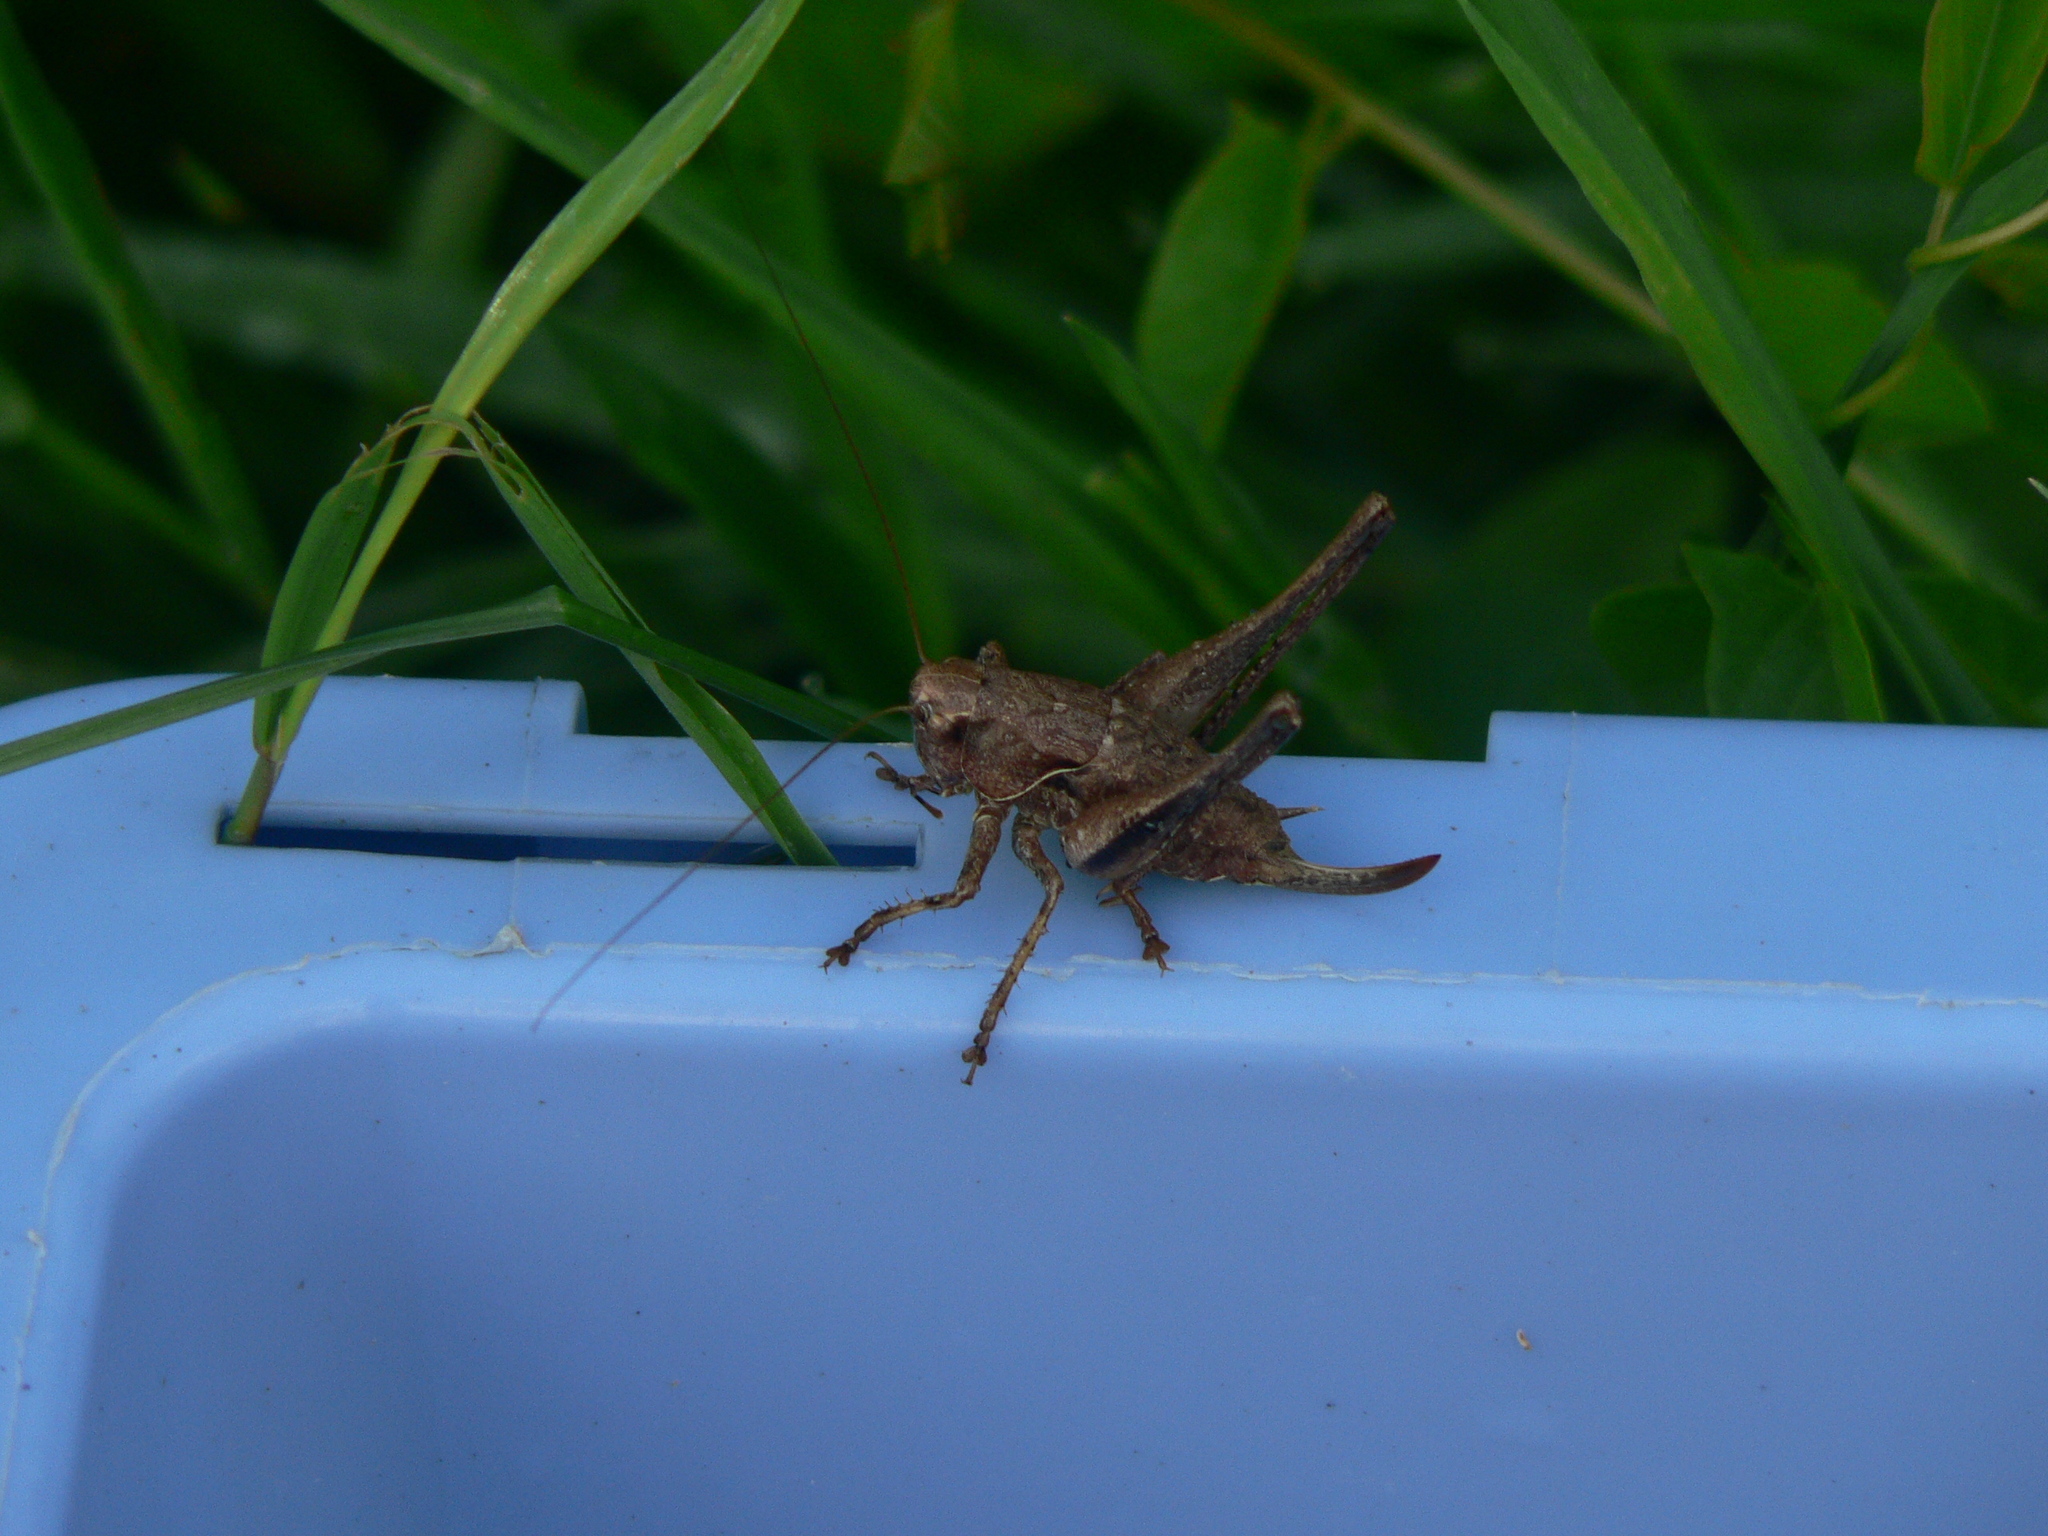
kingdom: Animalia
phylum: Arthropoda
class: Insecta
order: Orthoptera
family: Tettigoniidae
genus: Pholidoptera
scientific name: Pholidoptera griseoaptera
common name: Dark bush-cricket
